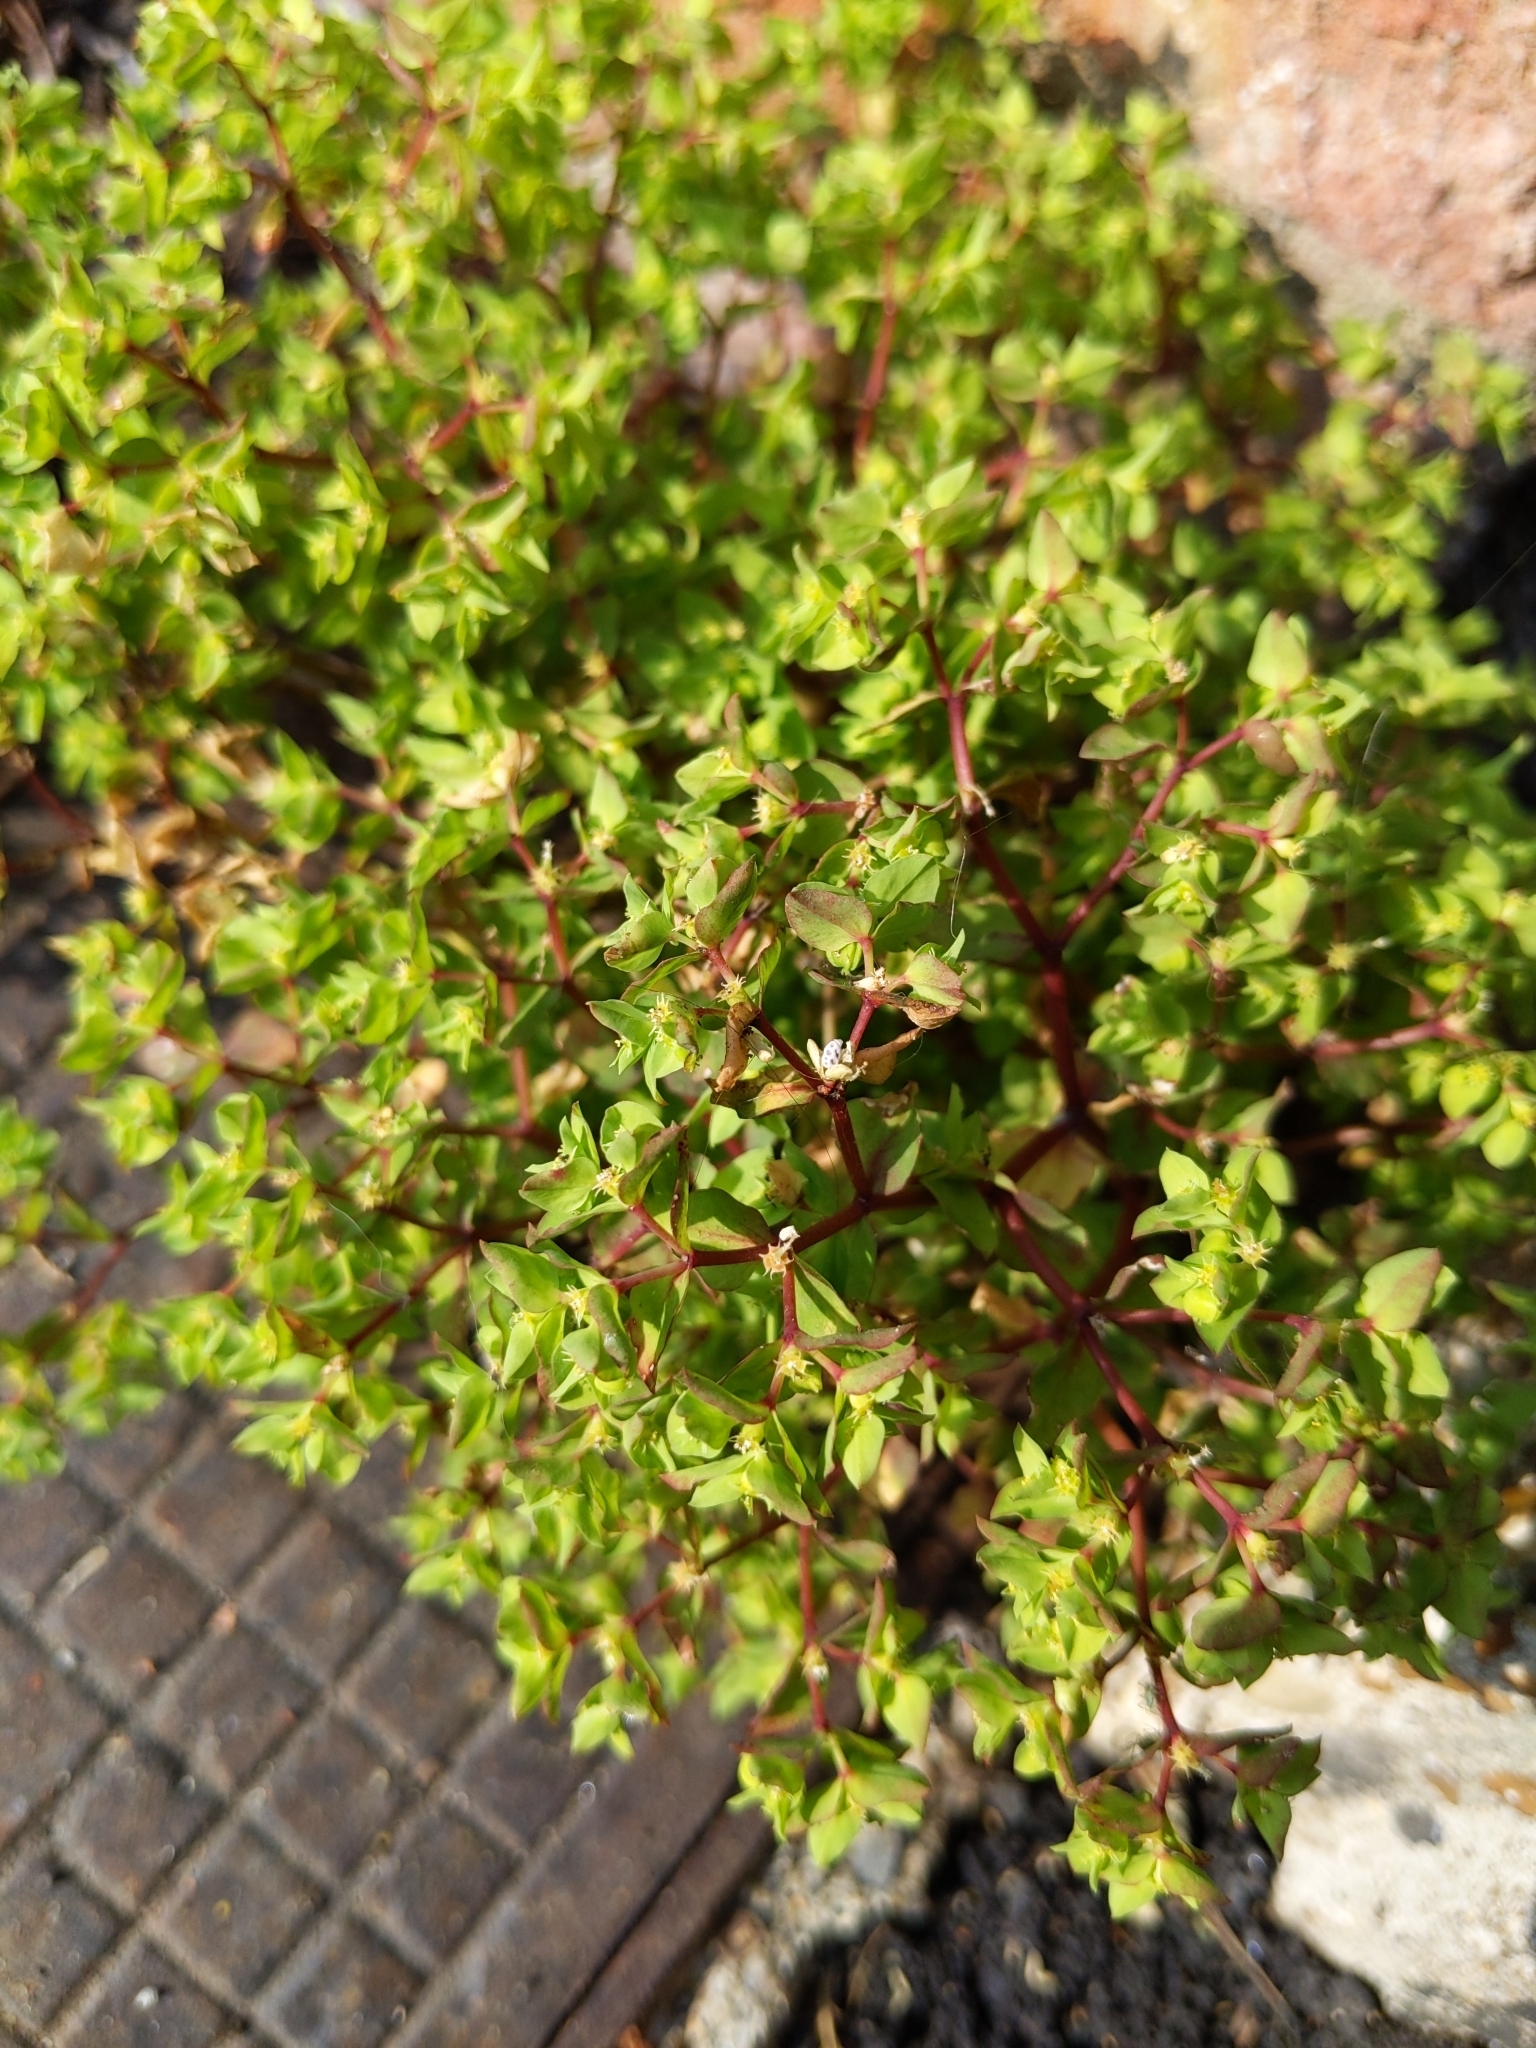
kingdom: Plantae
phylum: Tracheophyta
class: Magnoliopsida
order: Malpighiales
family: Euphorbiaceae
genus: Euphorbia
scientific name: Euphorbia peplus
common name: Petty spurge
